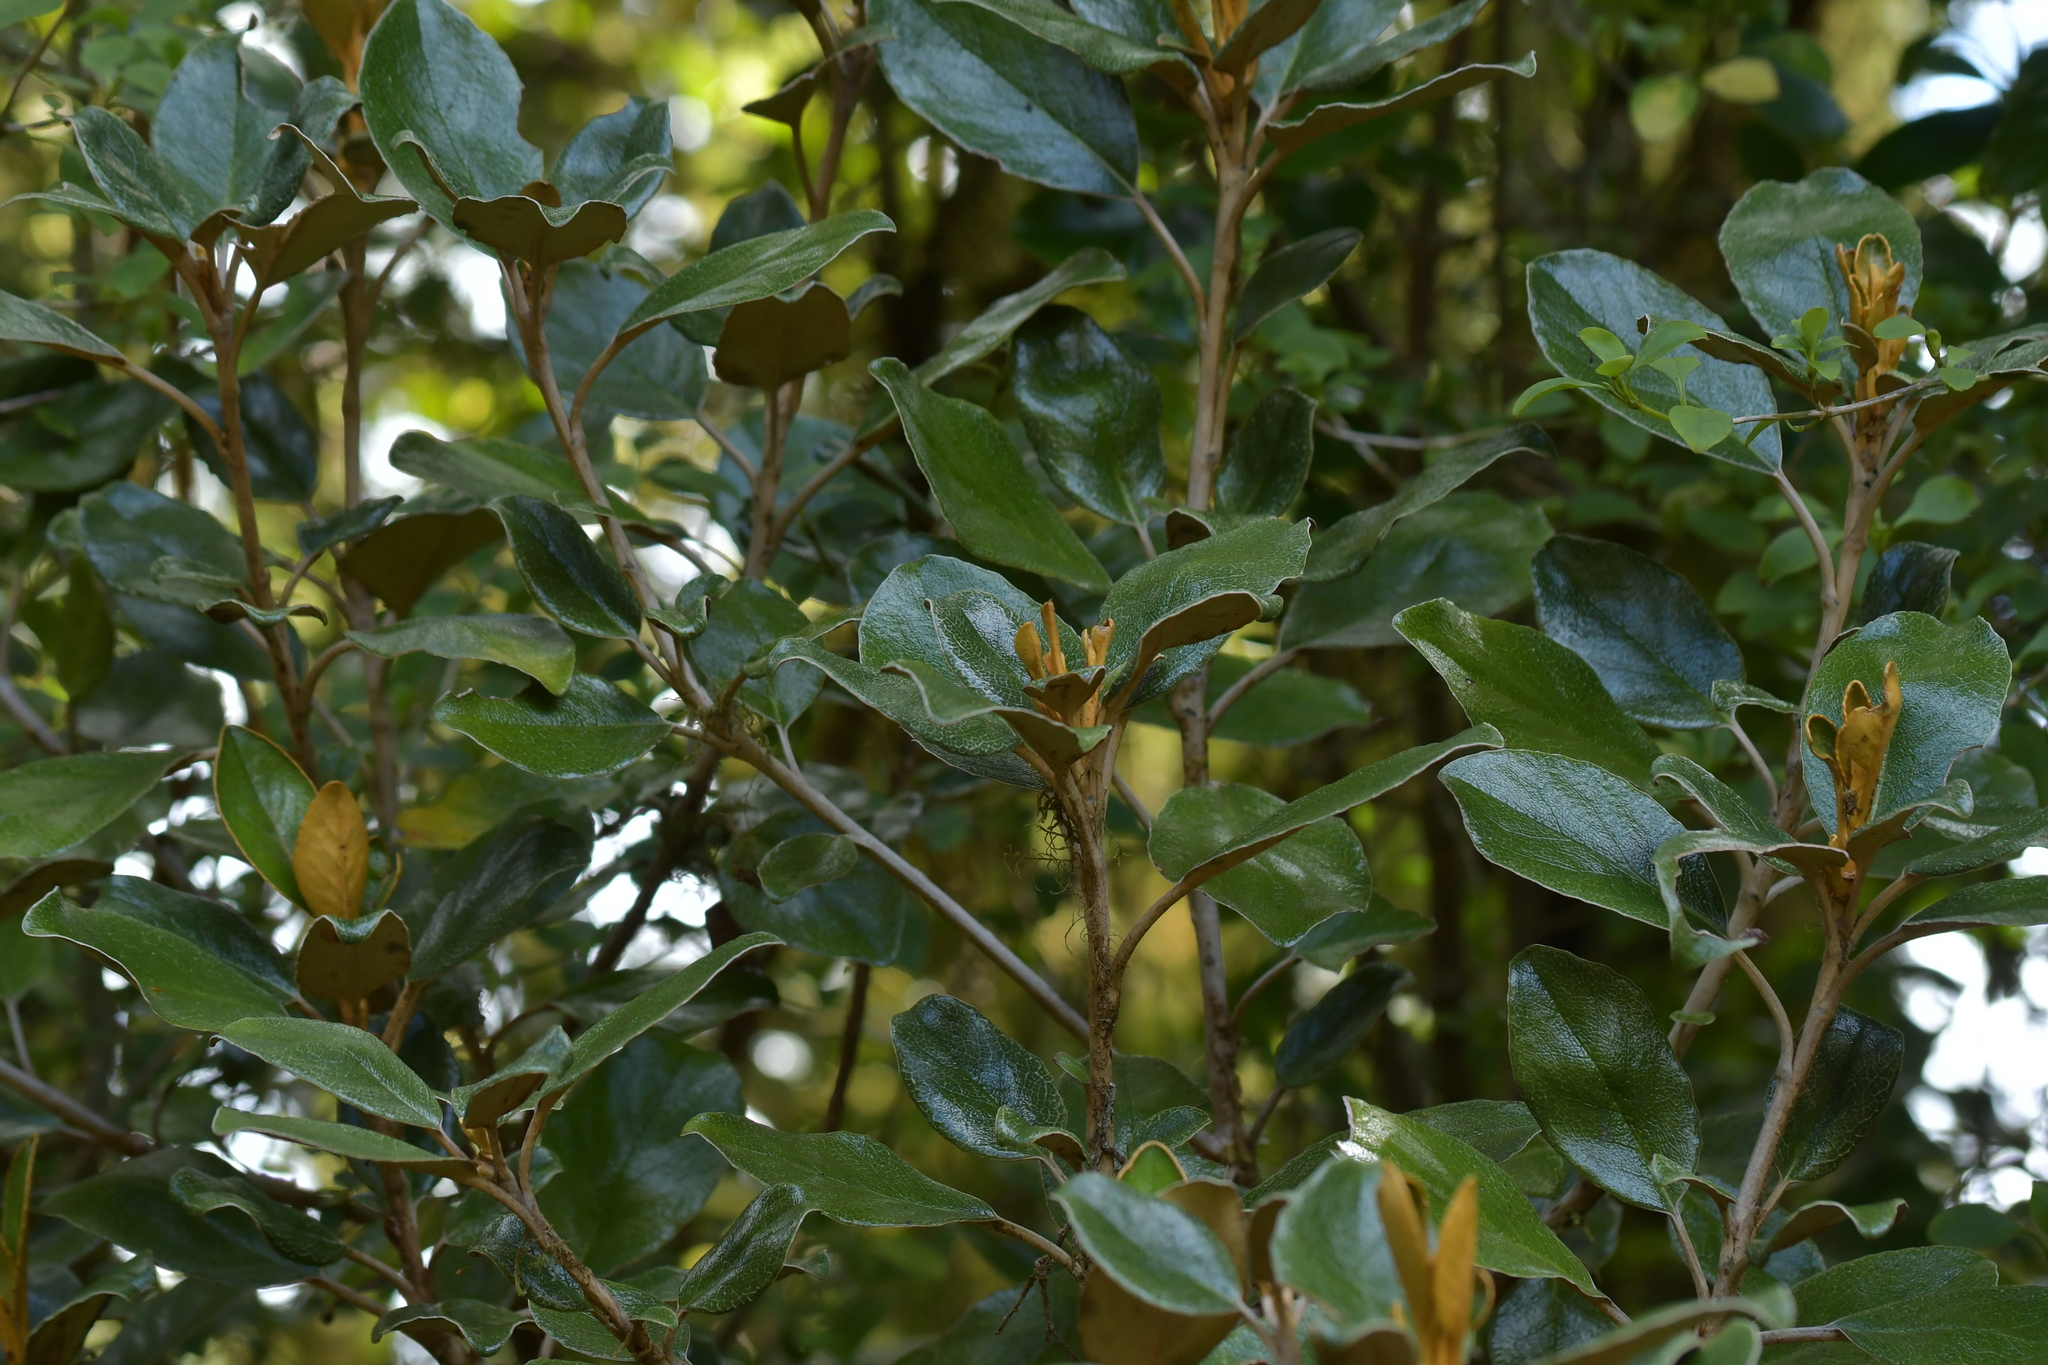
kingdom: Plantae
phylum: Tracheophyta
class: Magnoliopsida
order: Asterales
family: Asteraceae
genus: Brachyglottis
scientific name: Brachyglottis elaeagnifolia
